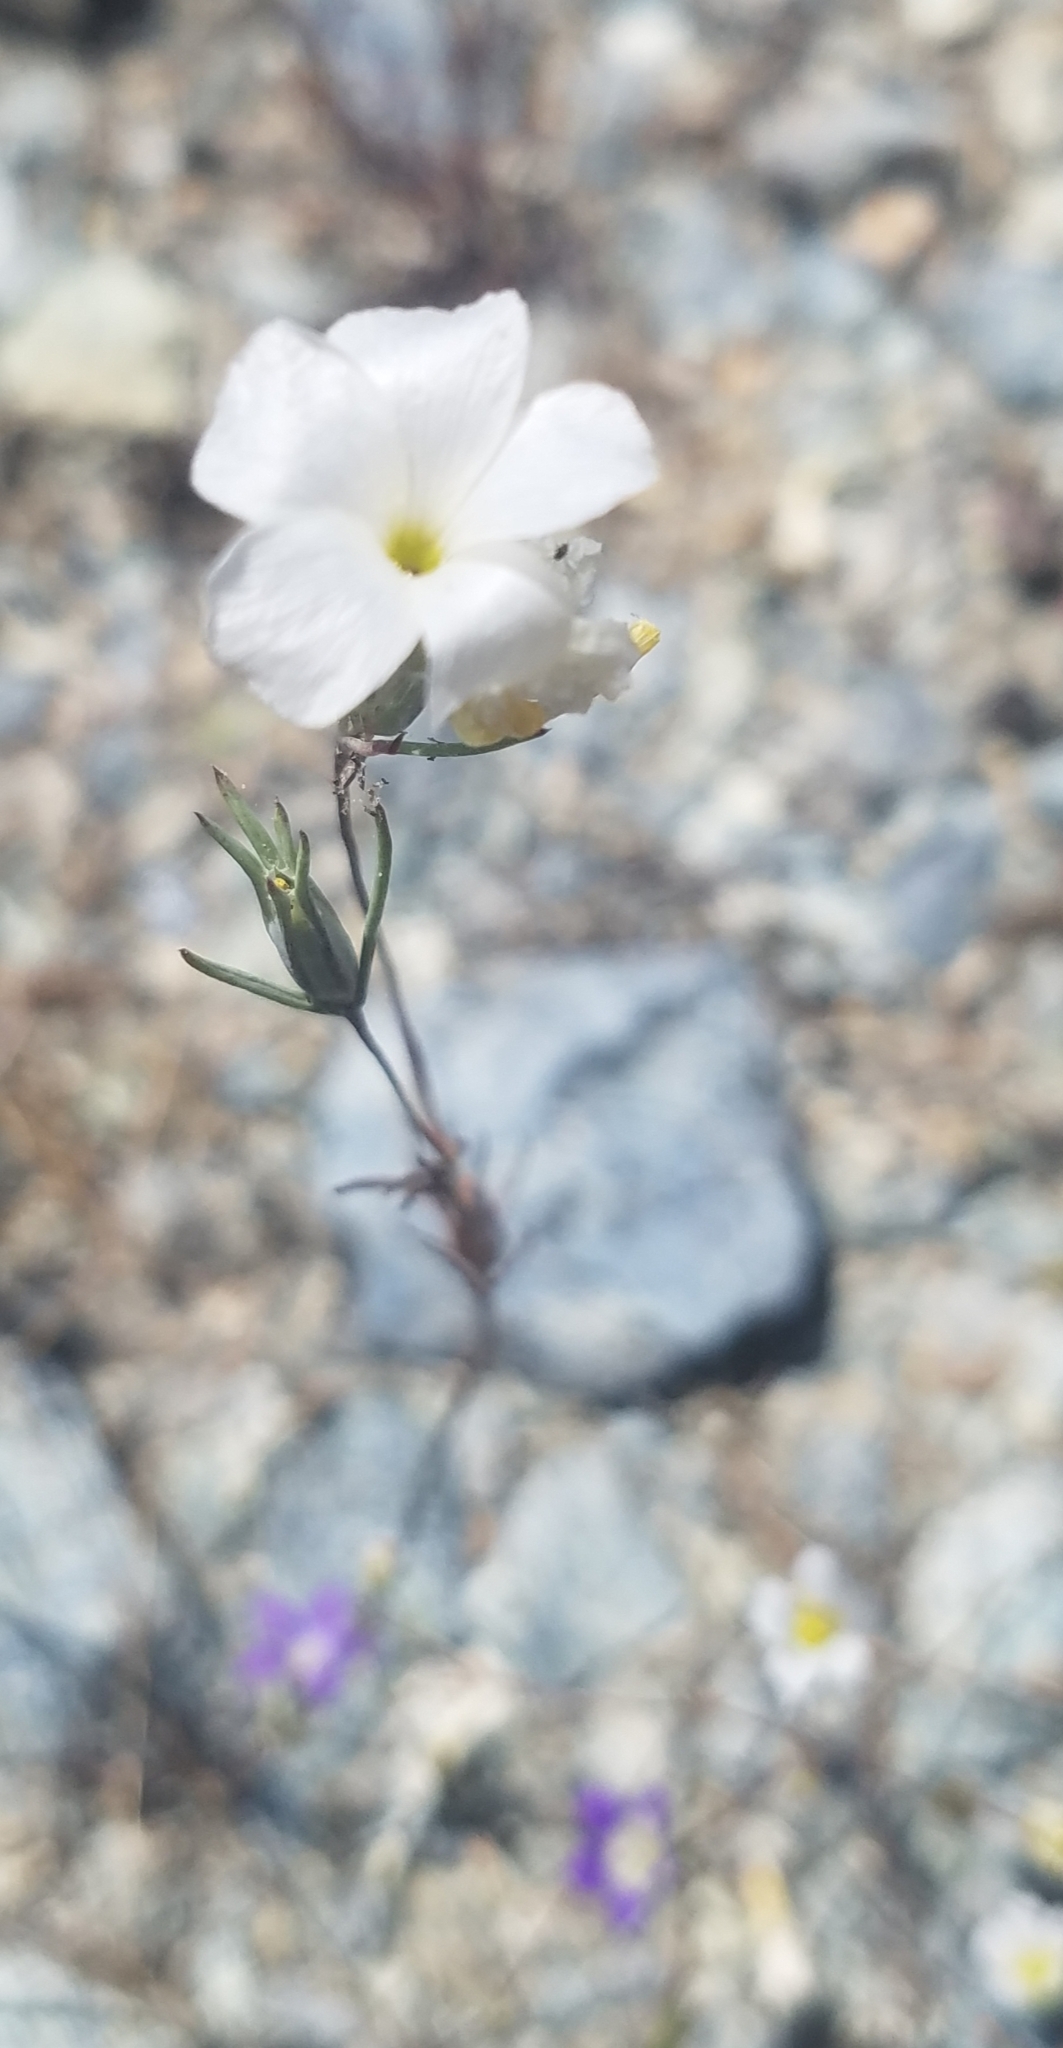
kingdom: Plantae
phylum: Tracheophyta
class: Magnoliopsida
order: Ericales
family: Polemoniaceae
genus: Linanthus
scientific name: Linanthus dichotomus
